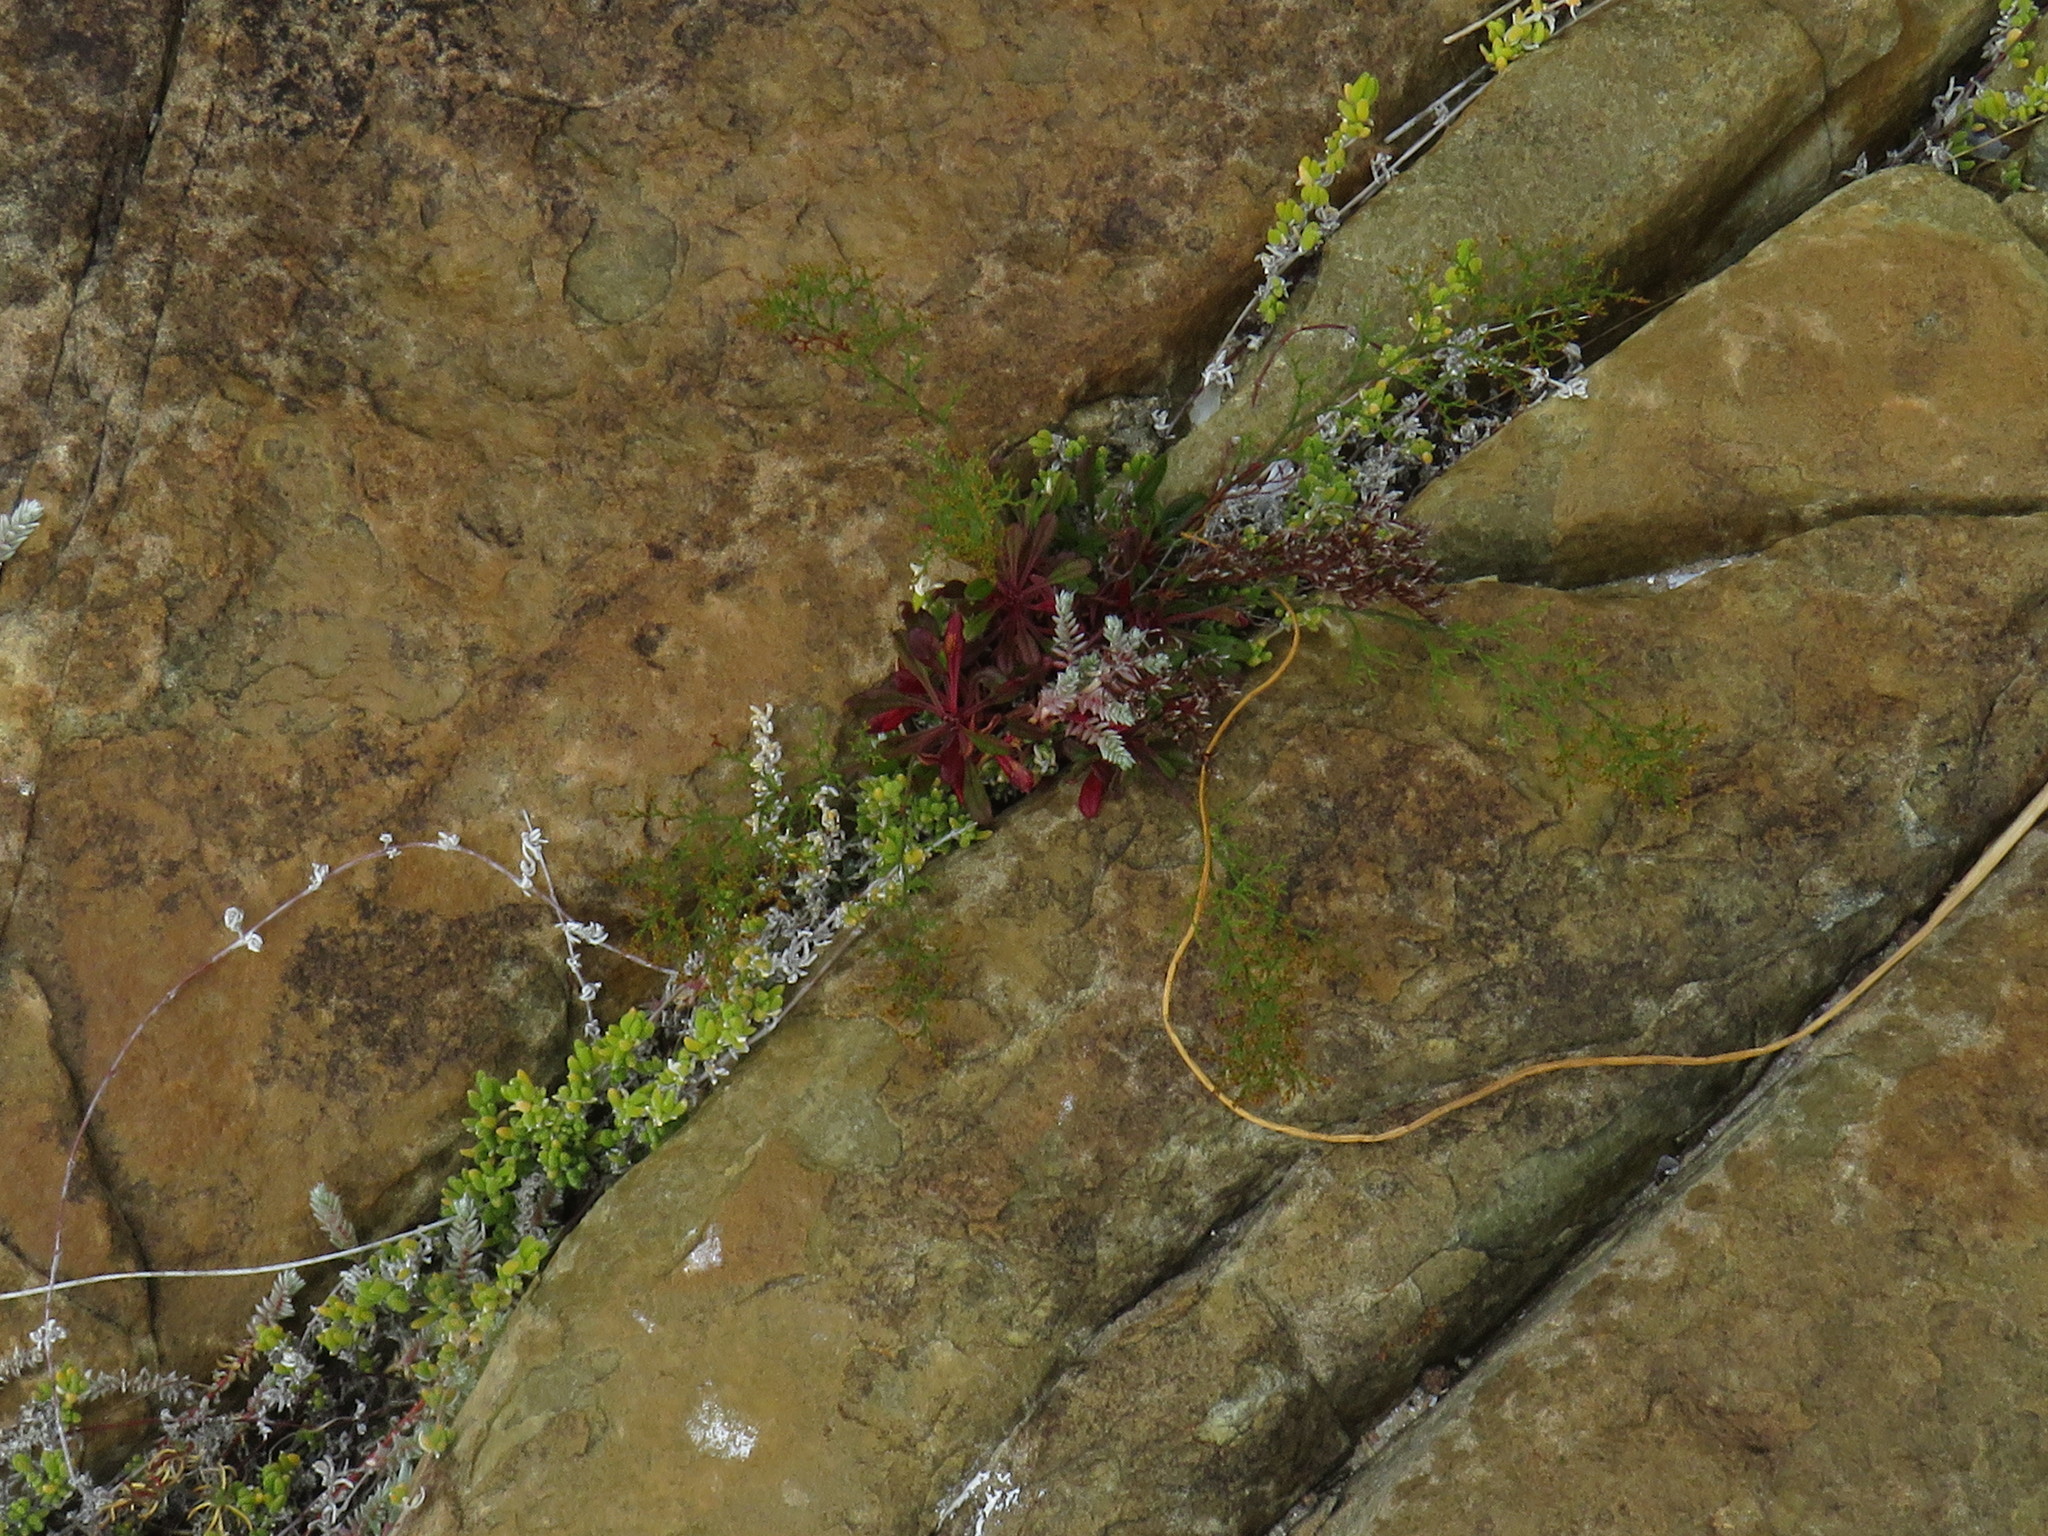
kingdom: Plantae
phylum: Tracheophyta
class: Magnoliopsida
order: Caryophyllales
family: Plumbaginaceae
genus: Limonium
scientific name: Limonium scabrum
